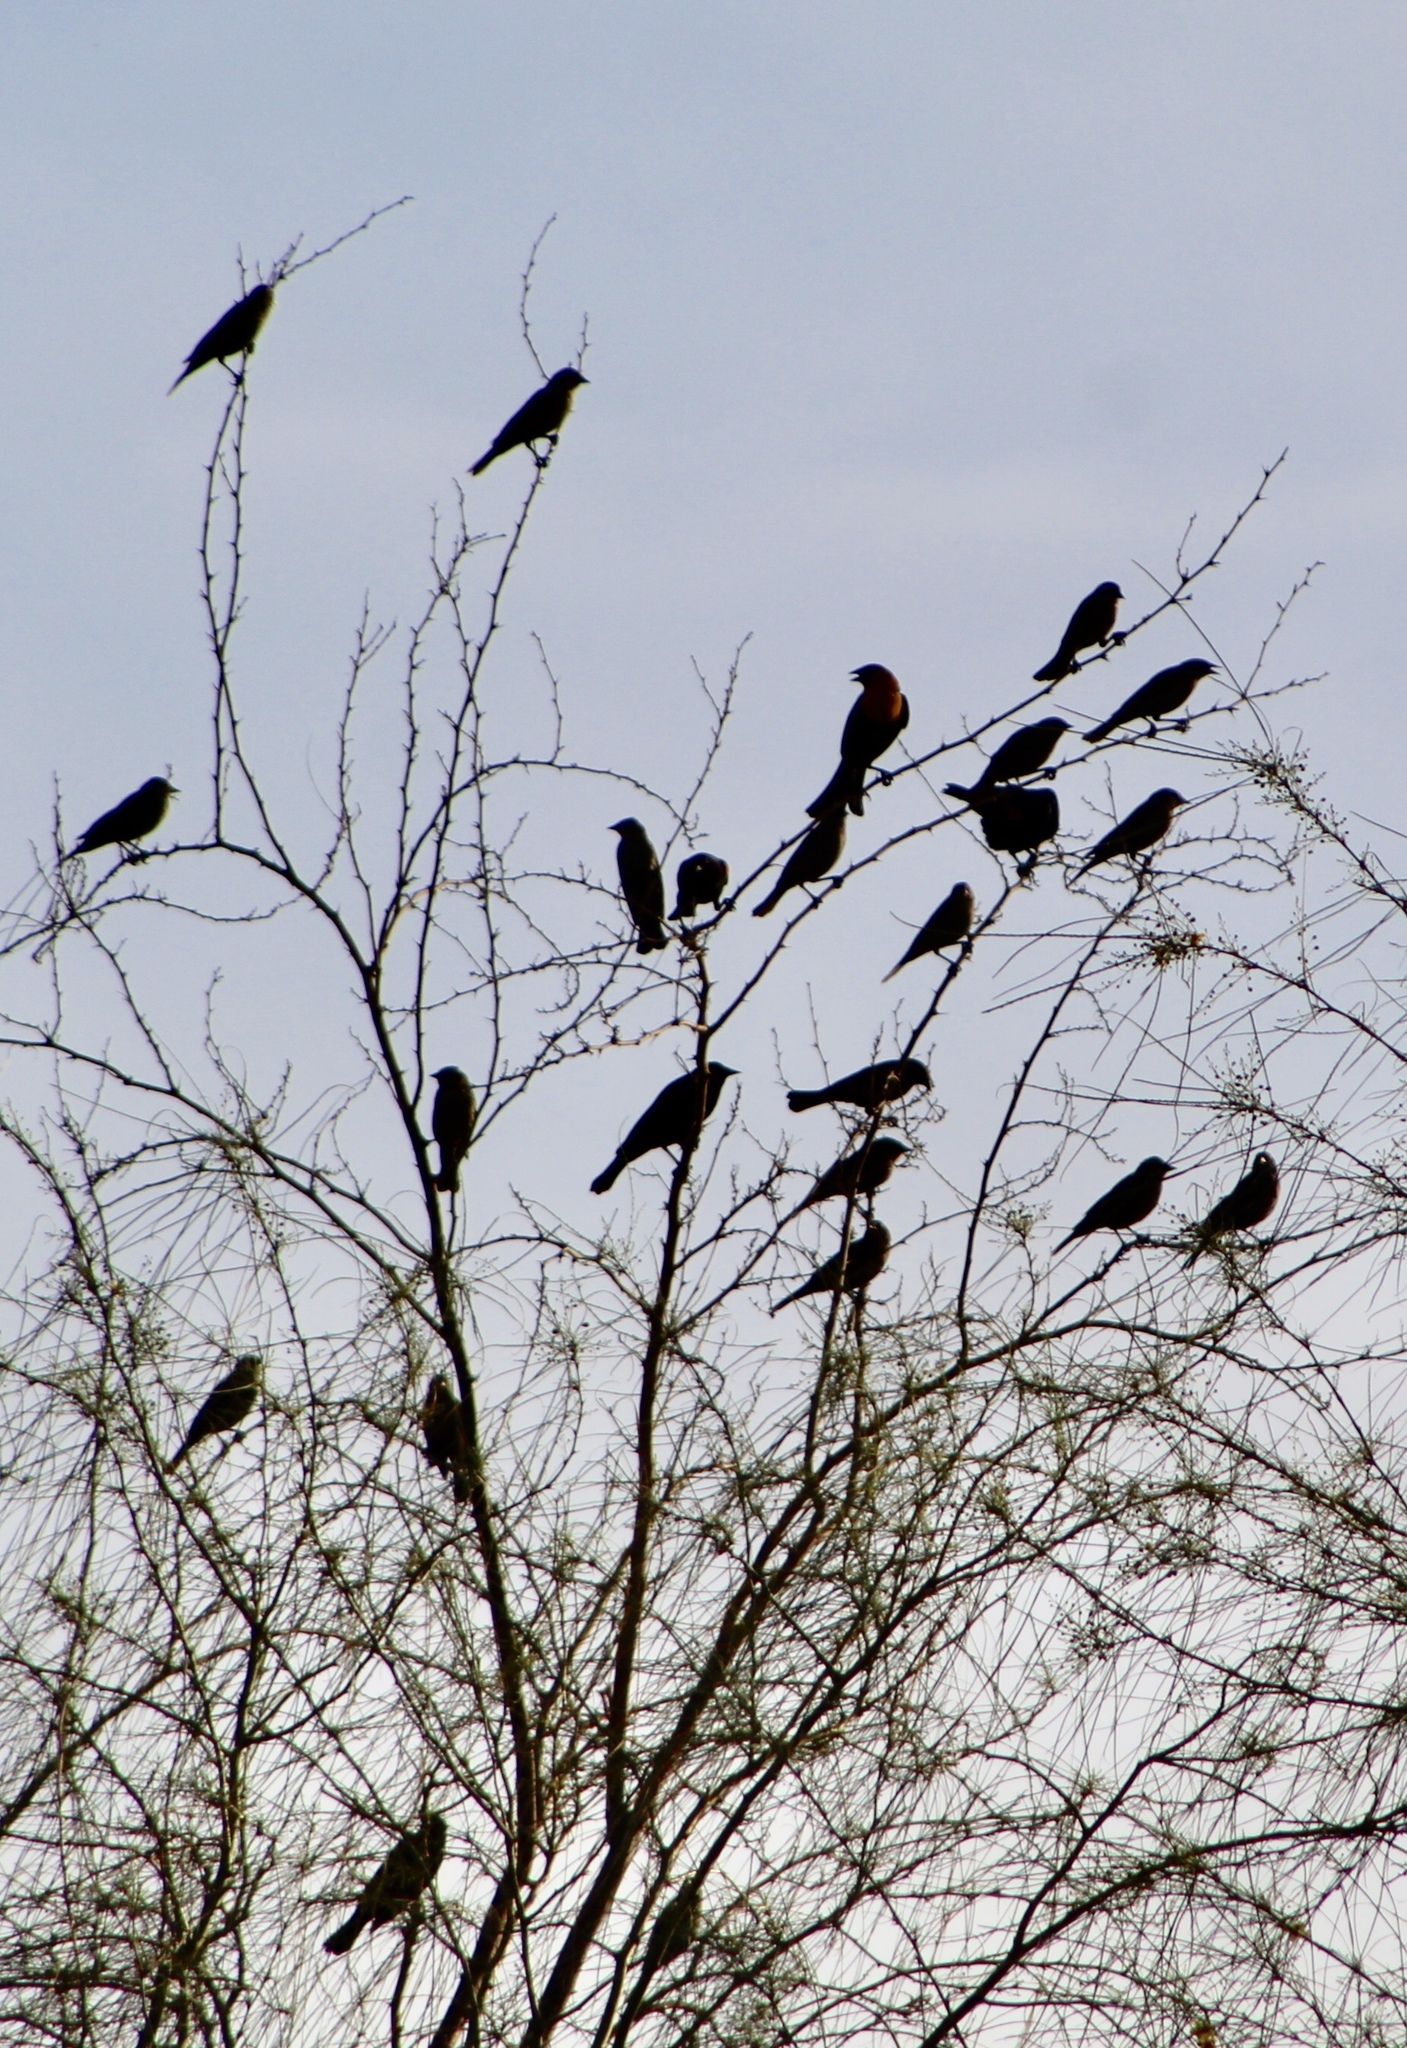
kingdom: Animalia
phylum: Chordata
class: Aves
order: Passeriformes
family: Icteridae
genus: Agelaius
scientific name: Agelaius phoeniceus
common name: Red-winged blackbird
